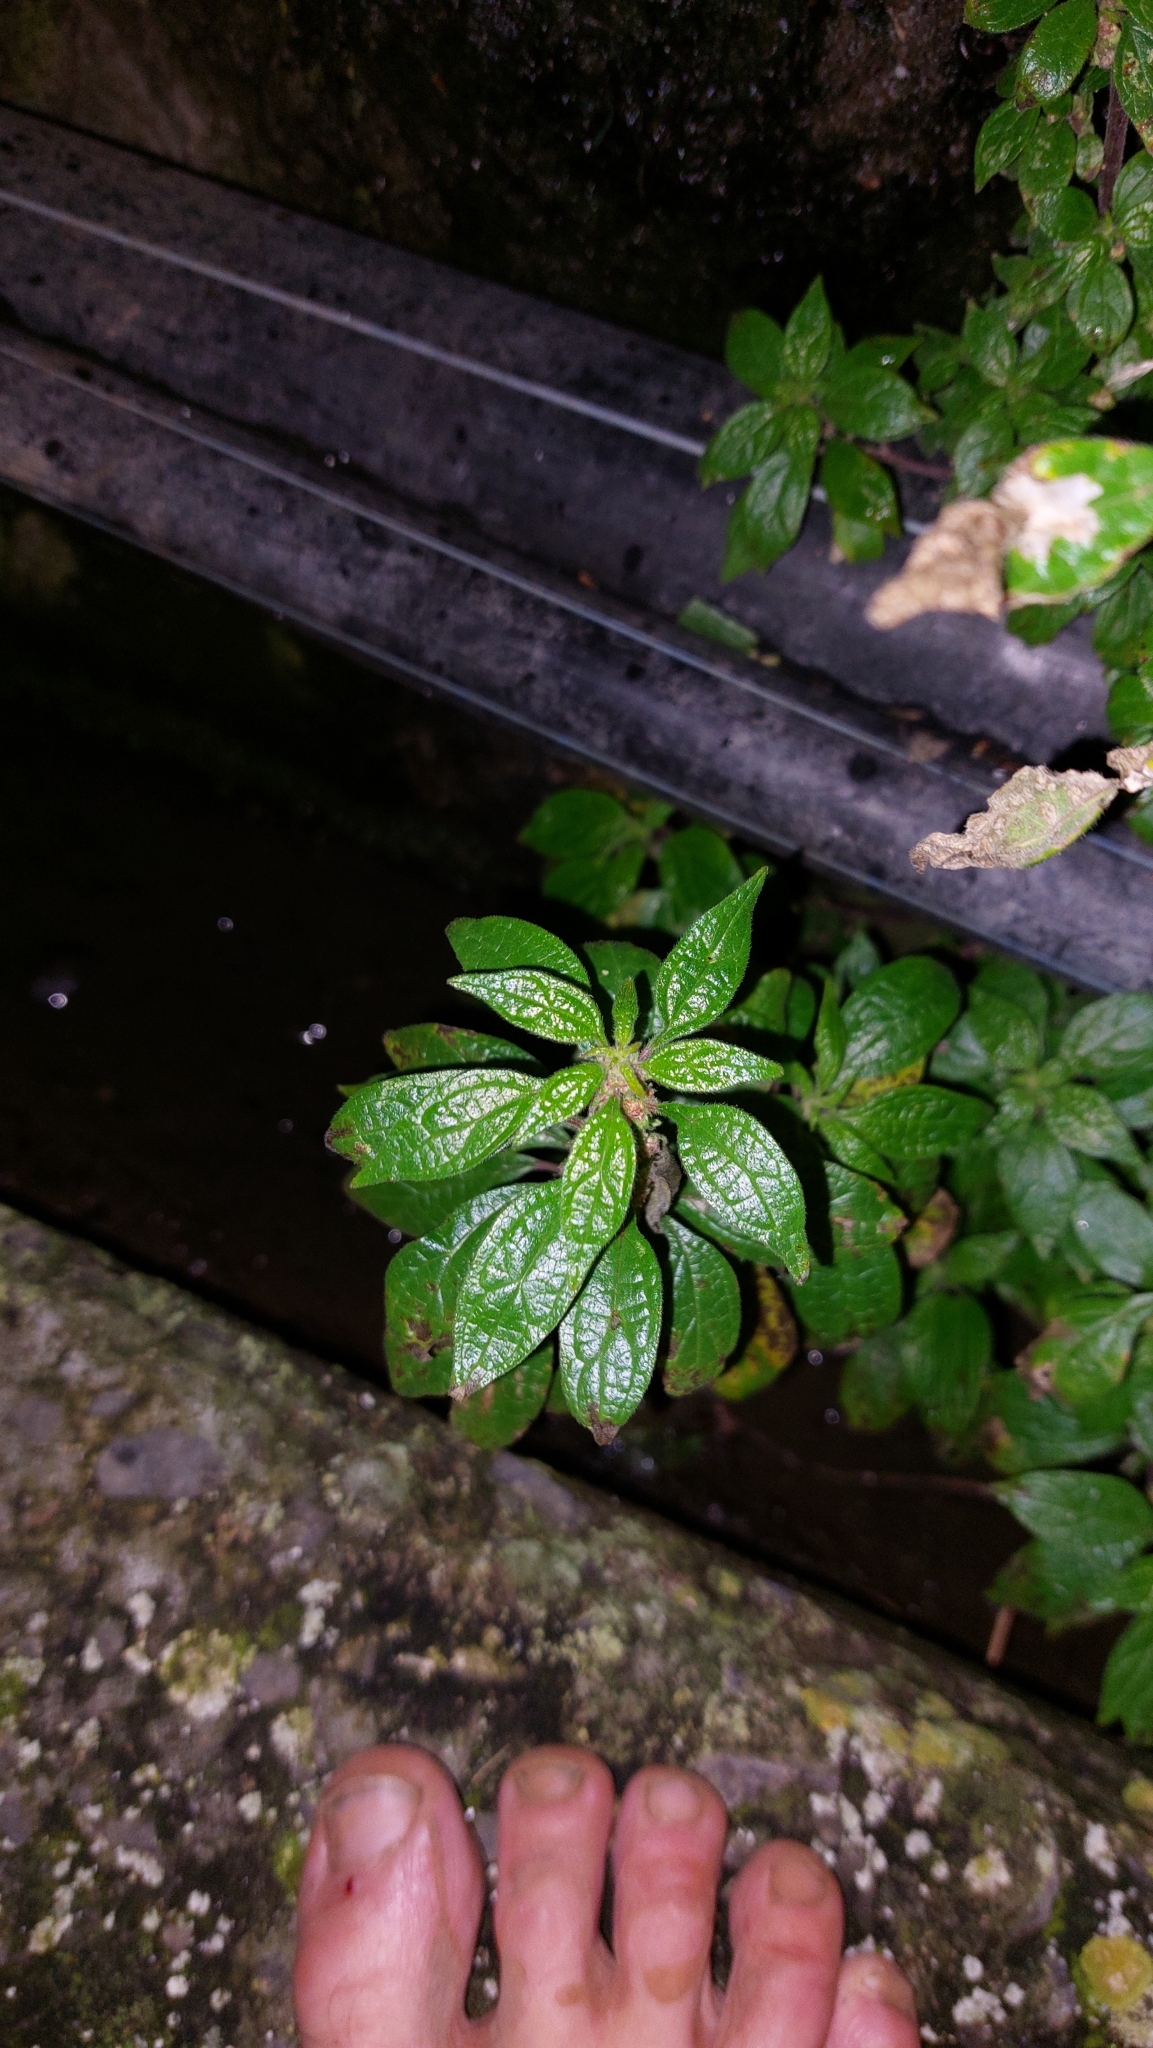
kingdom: Plantae
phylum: Tracheophyta
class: Magnoliopsida
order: Rosales
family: Urticaceae
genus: Parietaria
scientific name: Parietaria judaica
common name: Pellitory-of-the-wall
